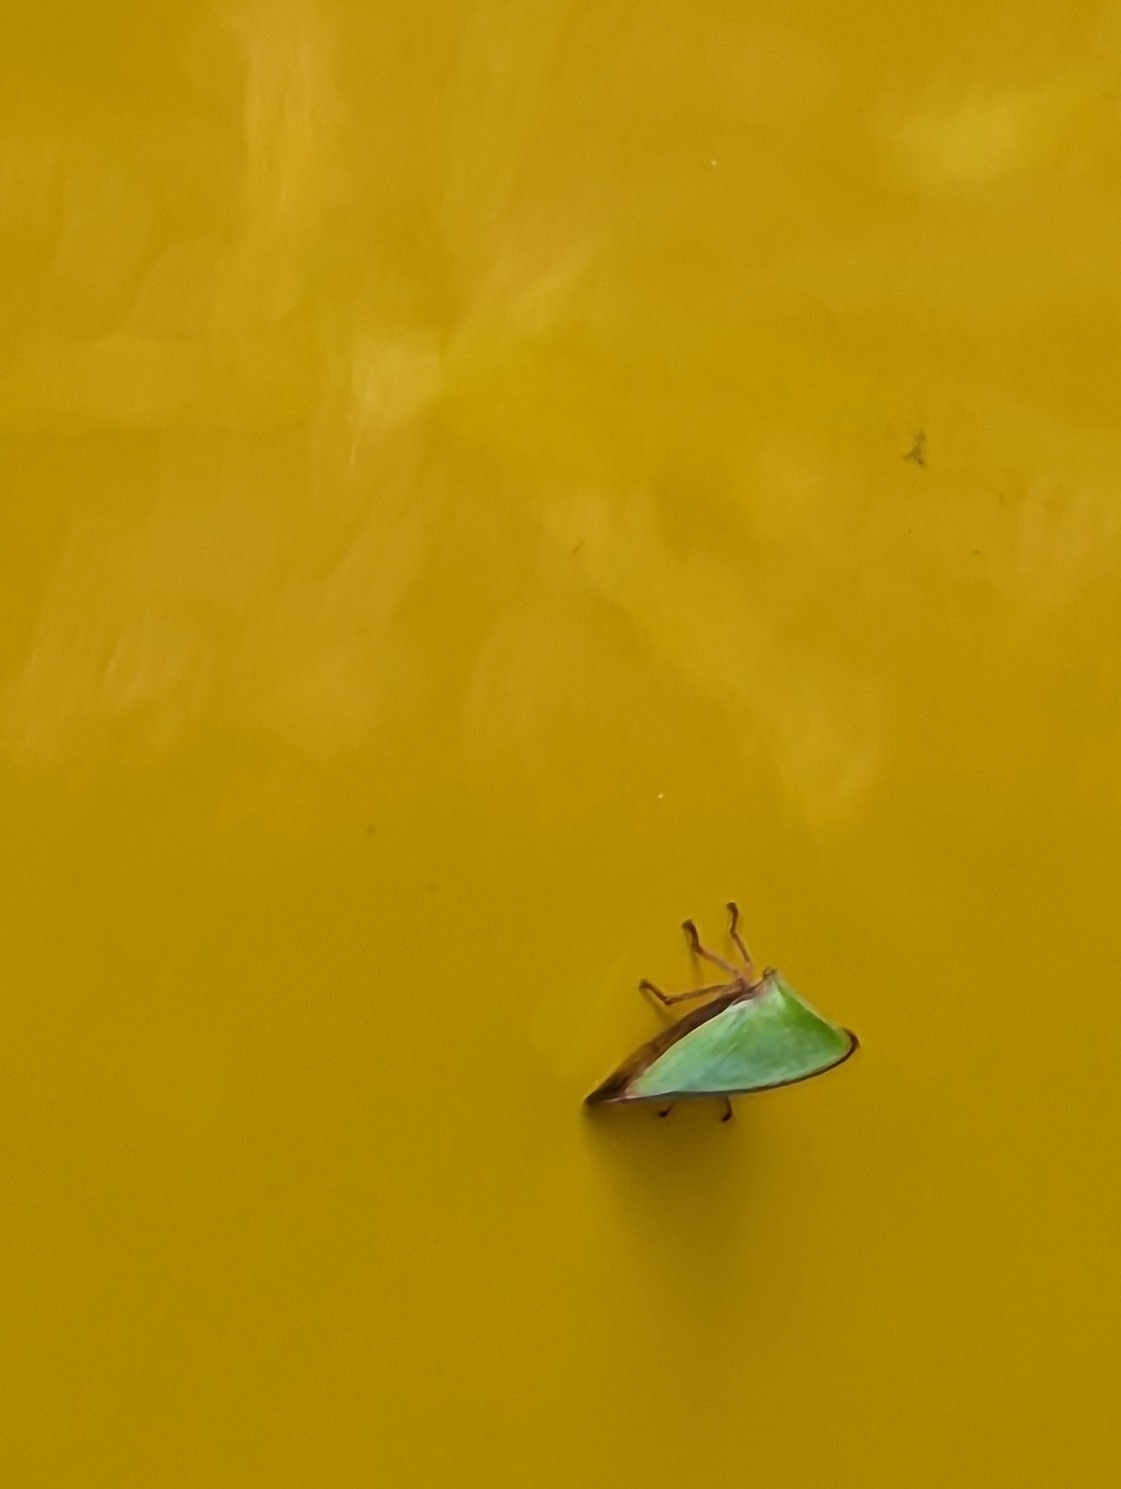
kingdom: Animalia
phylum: Arthropoda
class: Insecta
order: Hemiptera
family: Membracidae
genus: Archasia
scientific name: Archasia belfragei
